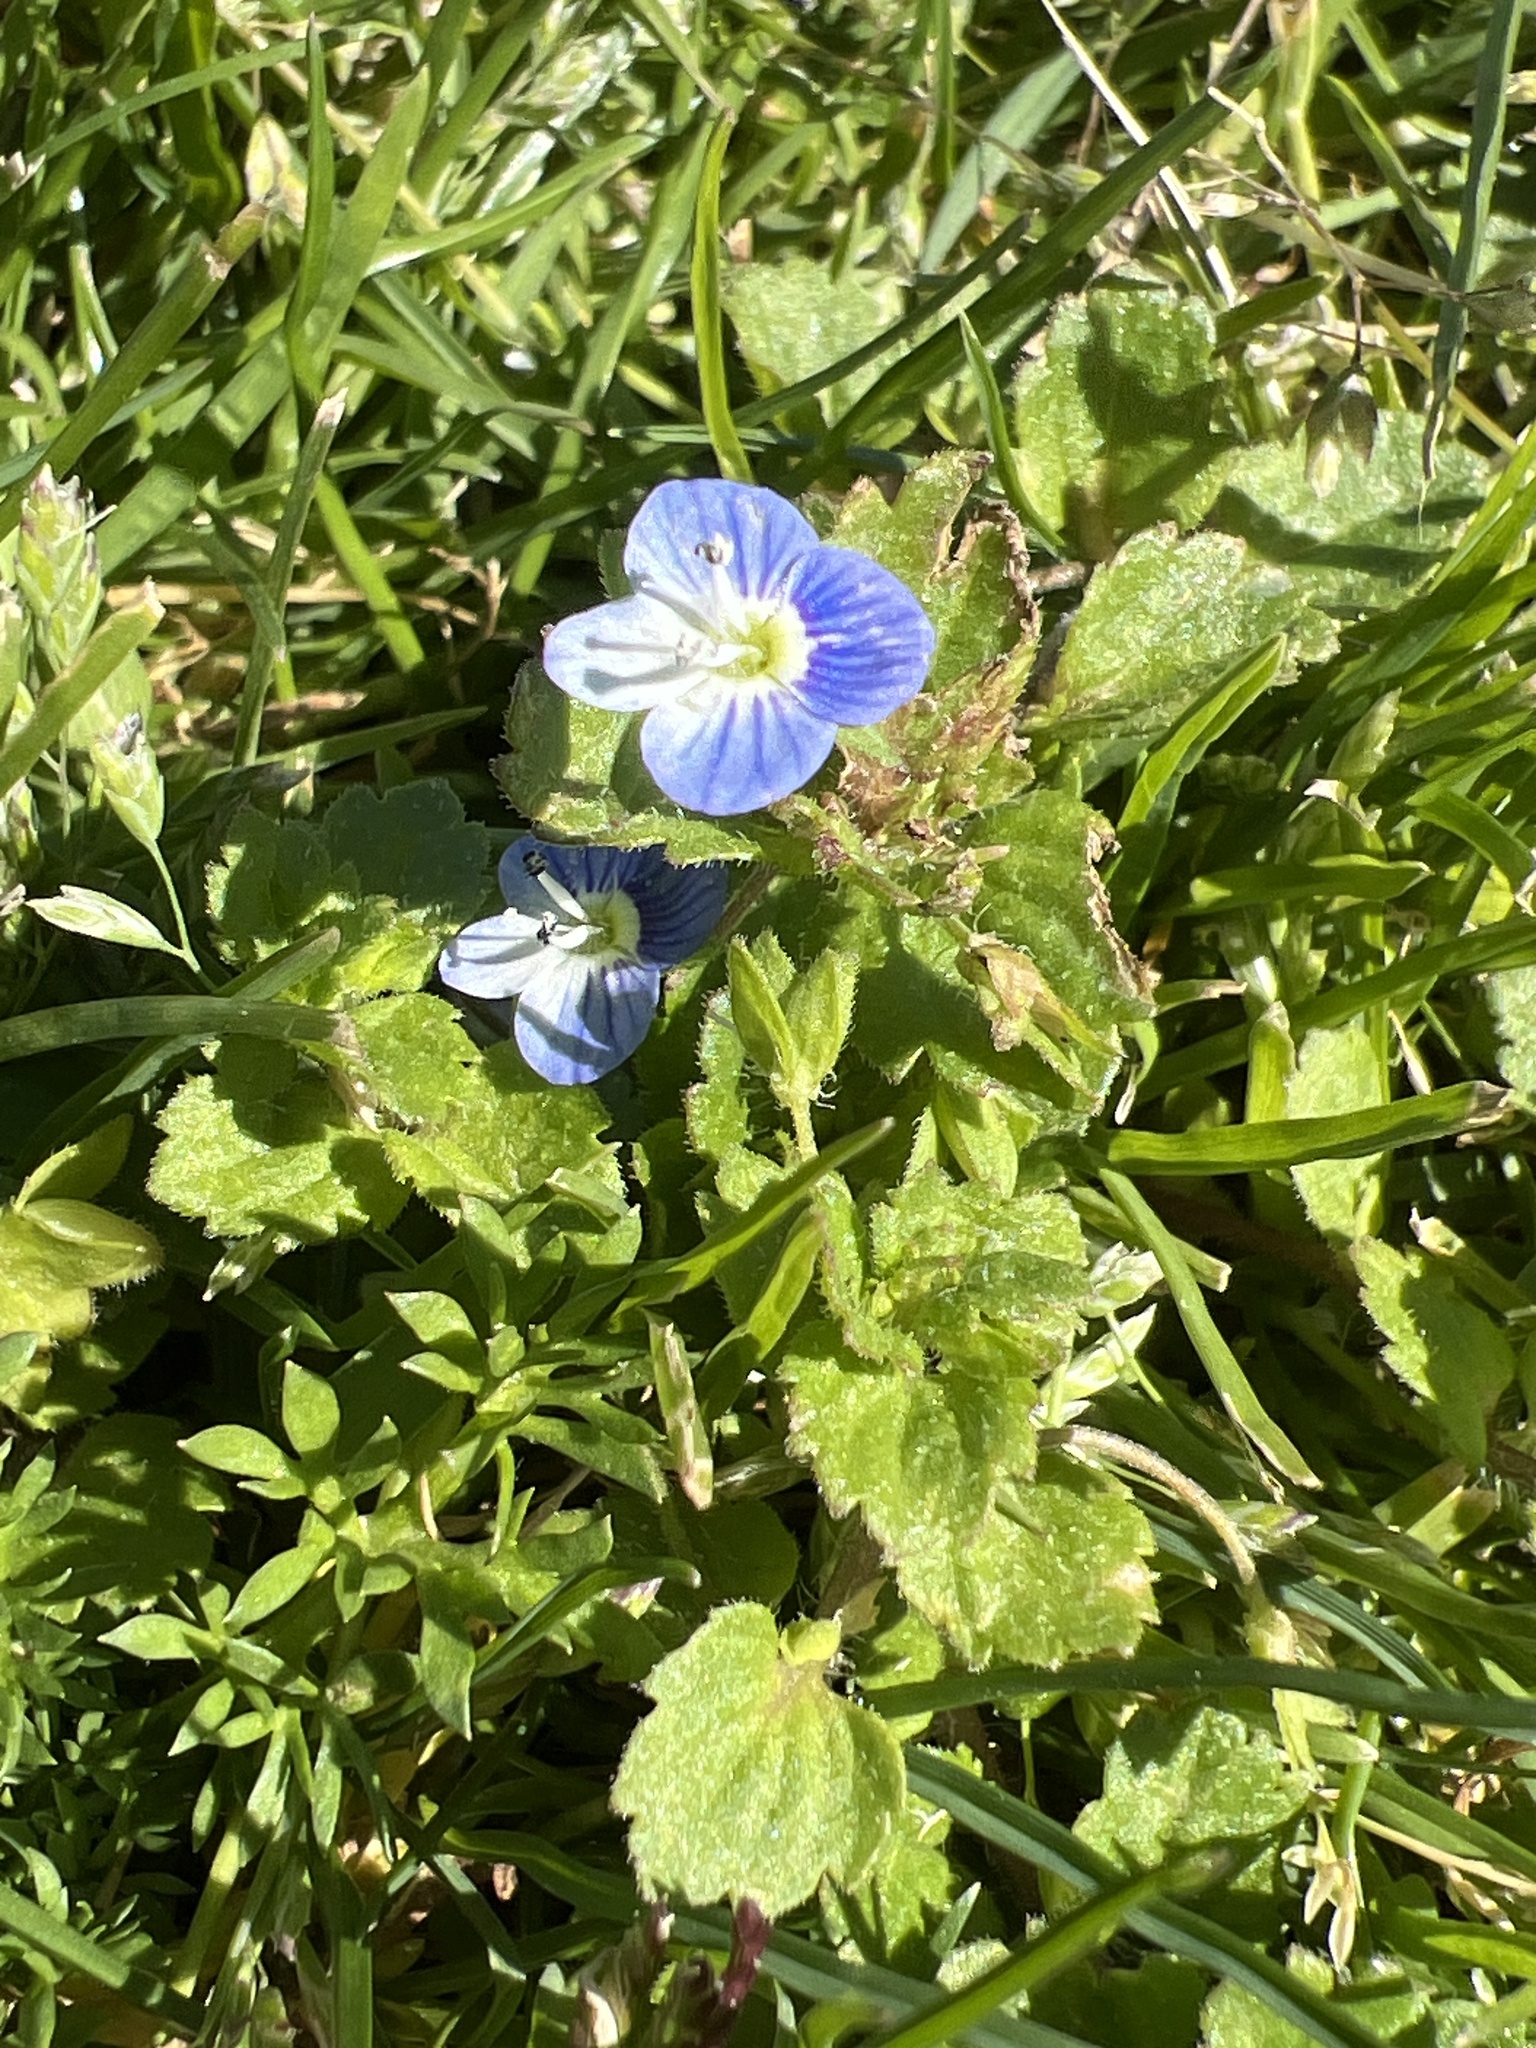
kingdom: Plantae
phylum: Tracheophyta
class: Magnoliopsida
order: Lamiales
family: Plantaginaceae
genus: Veronica
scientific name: Veronica persica
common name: Common field-speedwell
